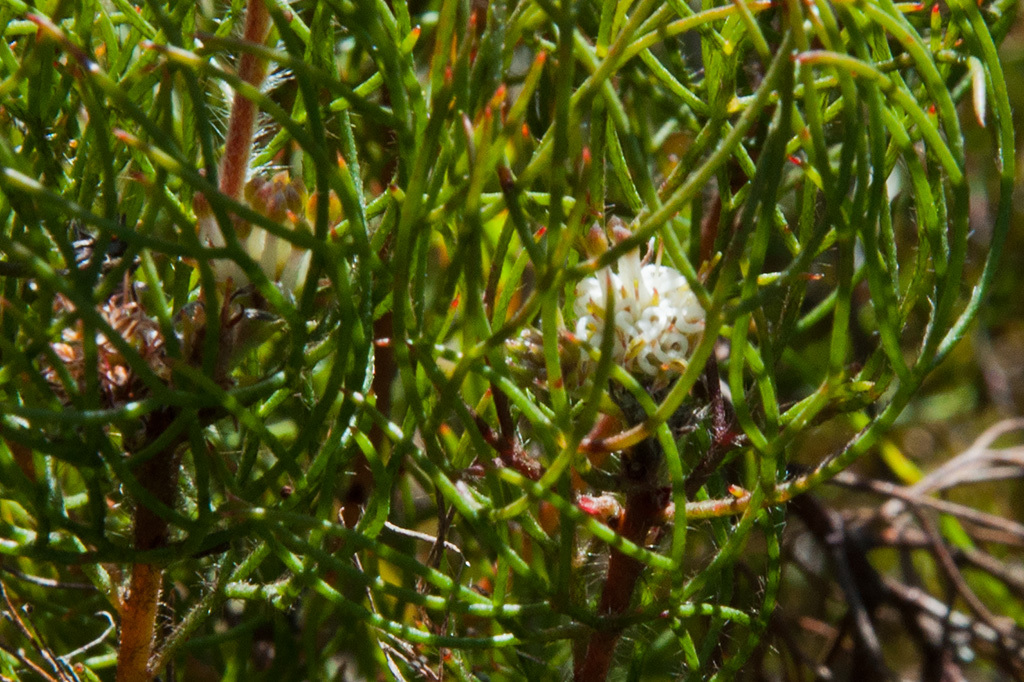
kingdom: Plantae
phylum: Tracheophyta
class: Magnoliopsida
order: Proteales
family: Proteaceae
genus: Serruria
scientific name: Serruria inconspicua
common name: Cryptic spiderhead
